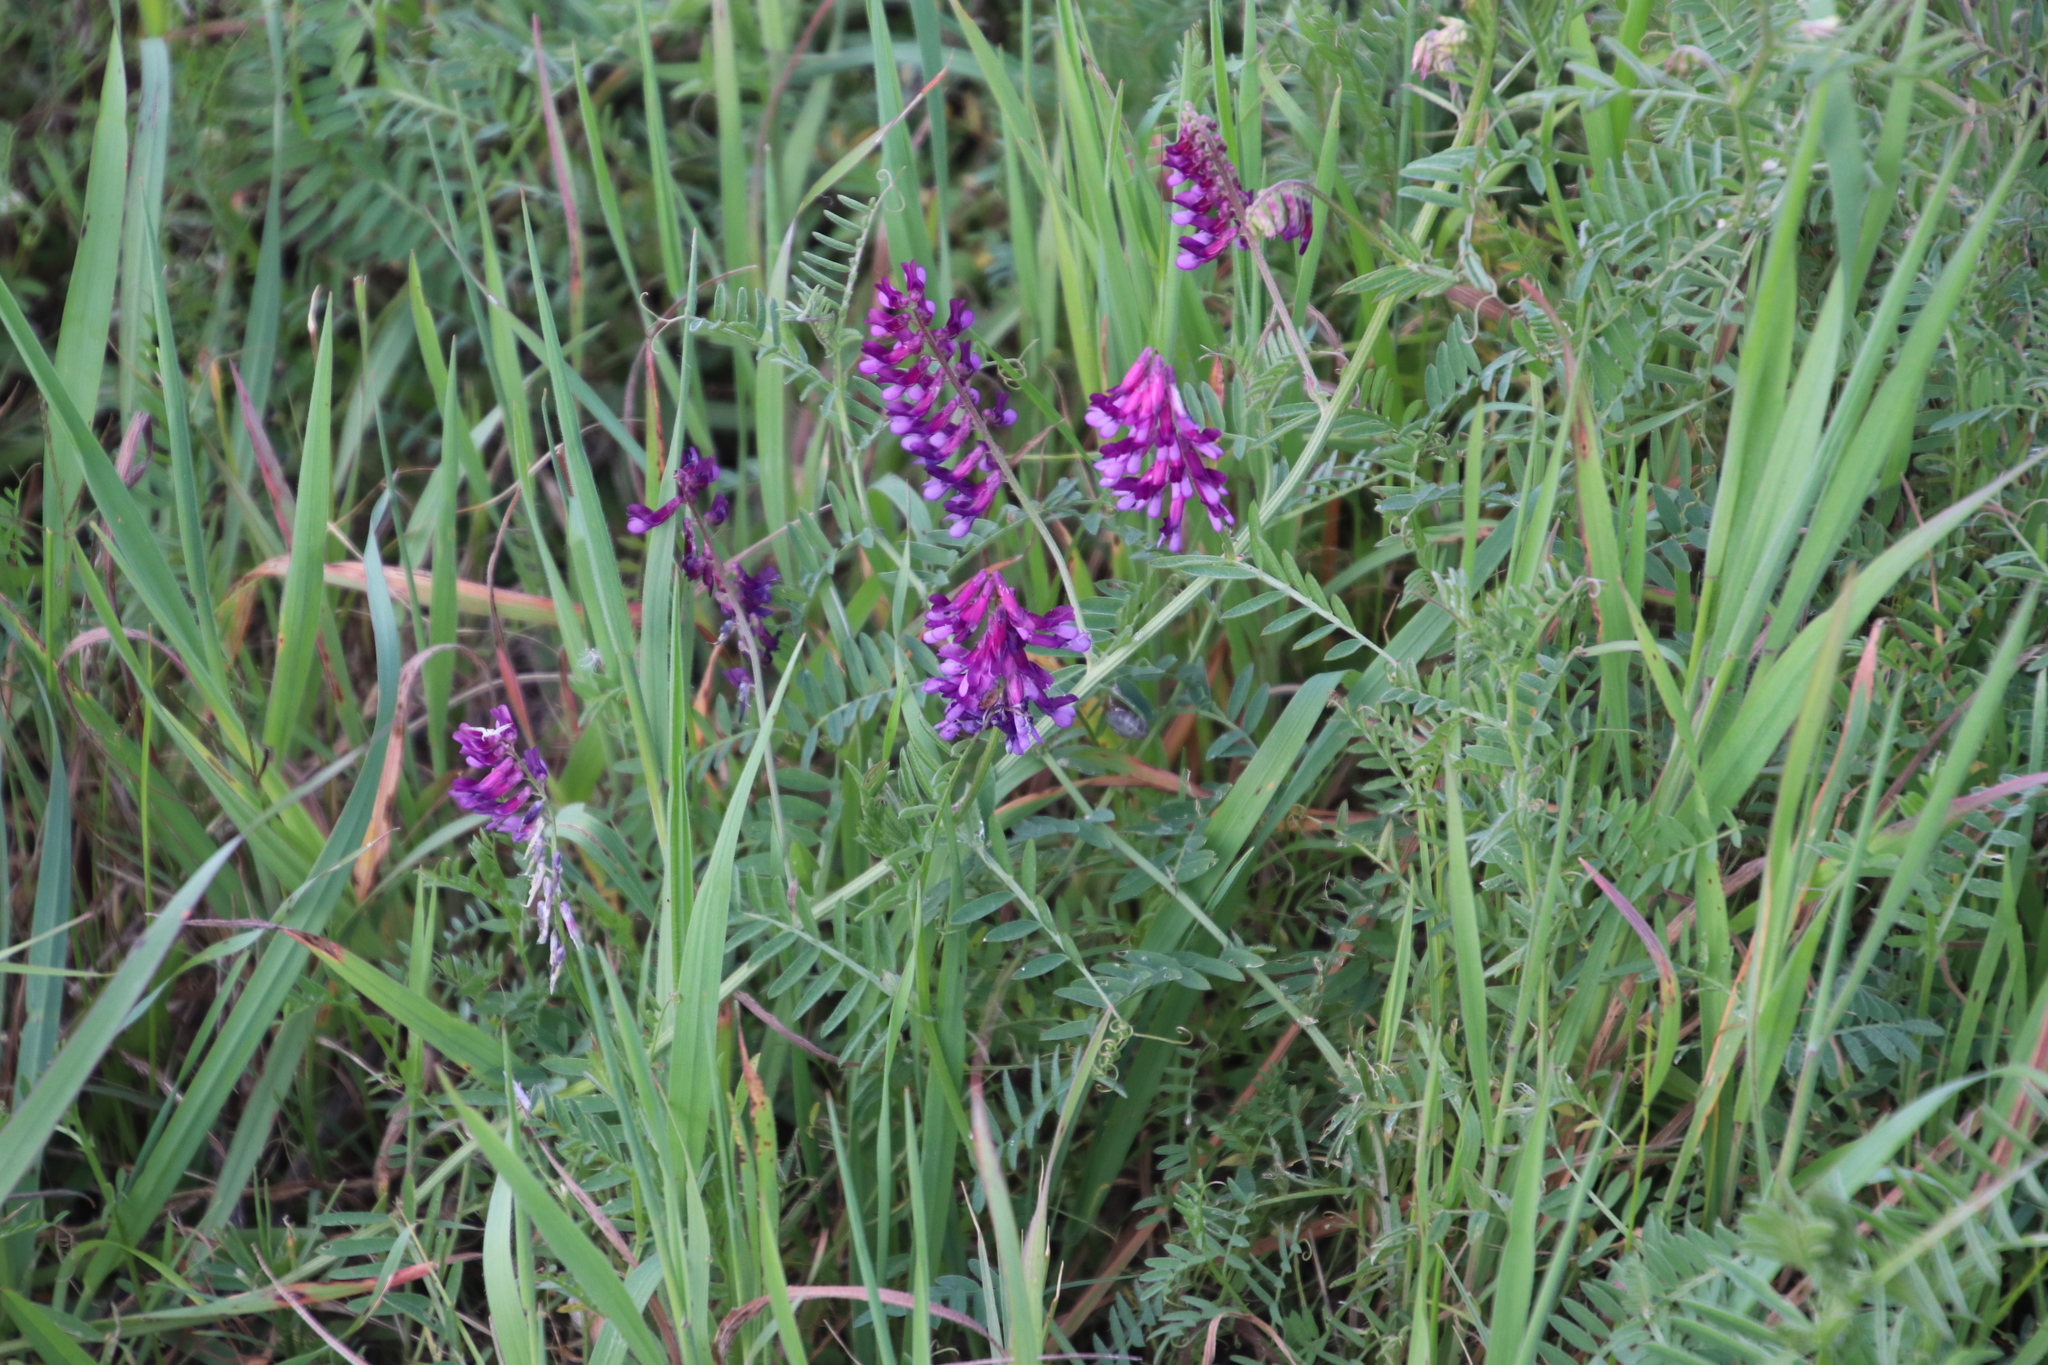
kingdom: Plantae
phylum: Tracheophyta
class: Magnoliopsida
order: Fabales
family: Fabaceae
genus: Vicia
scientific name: Vicia eriocarpa
